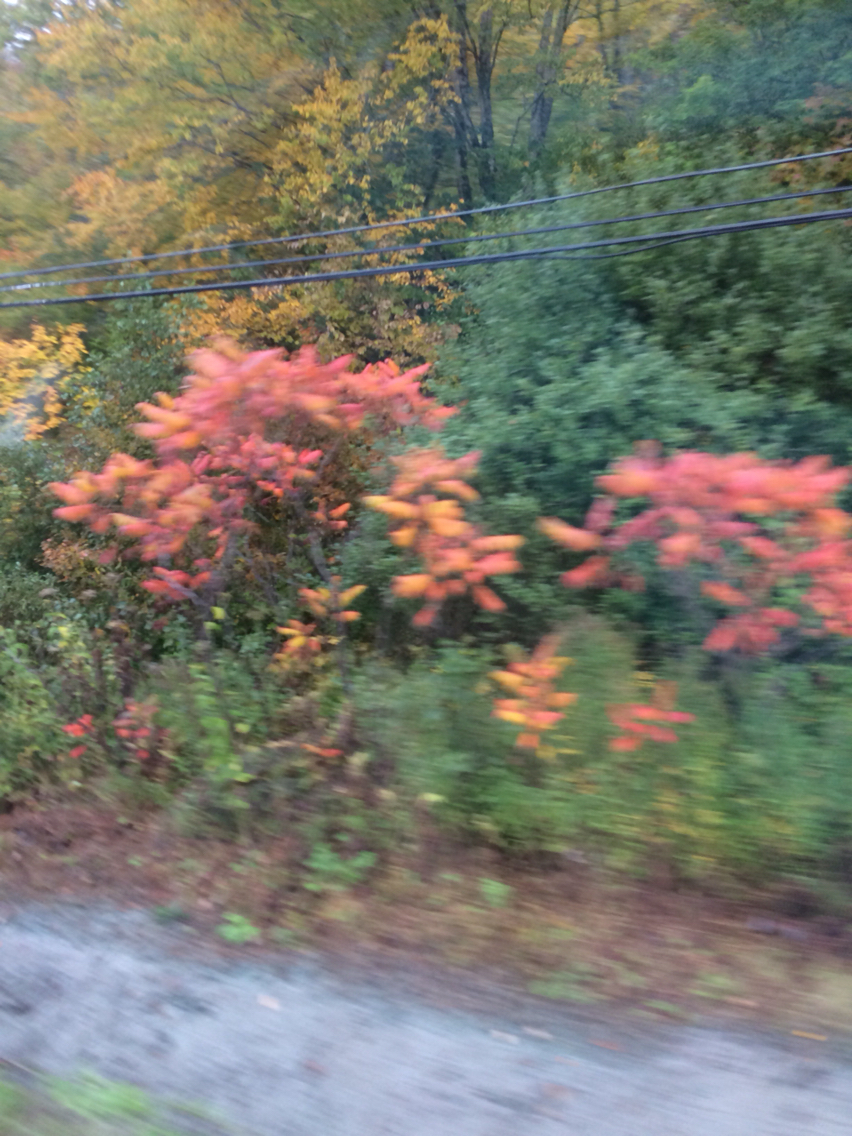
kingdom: Plantae
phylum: Tracheophyta
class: Magnoliopsida
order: Sapindales
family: Anacardiaceae
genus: Rhus
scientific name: Rhus typhina
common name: Staghorn sumac
